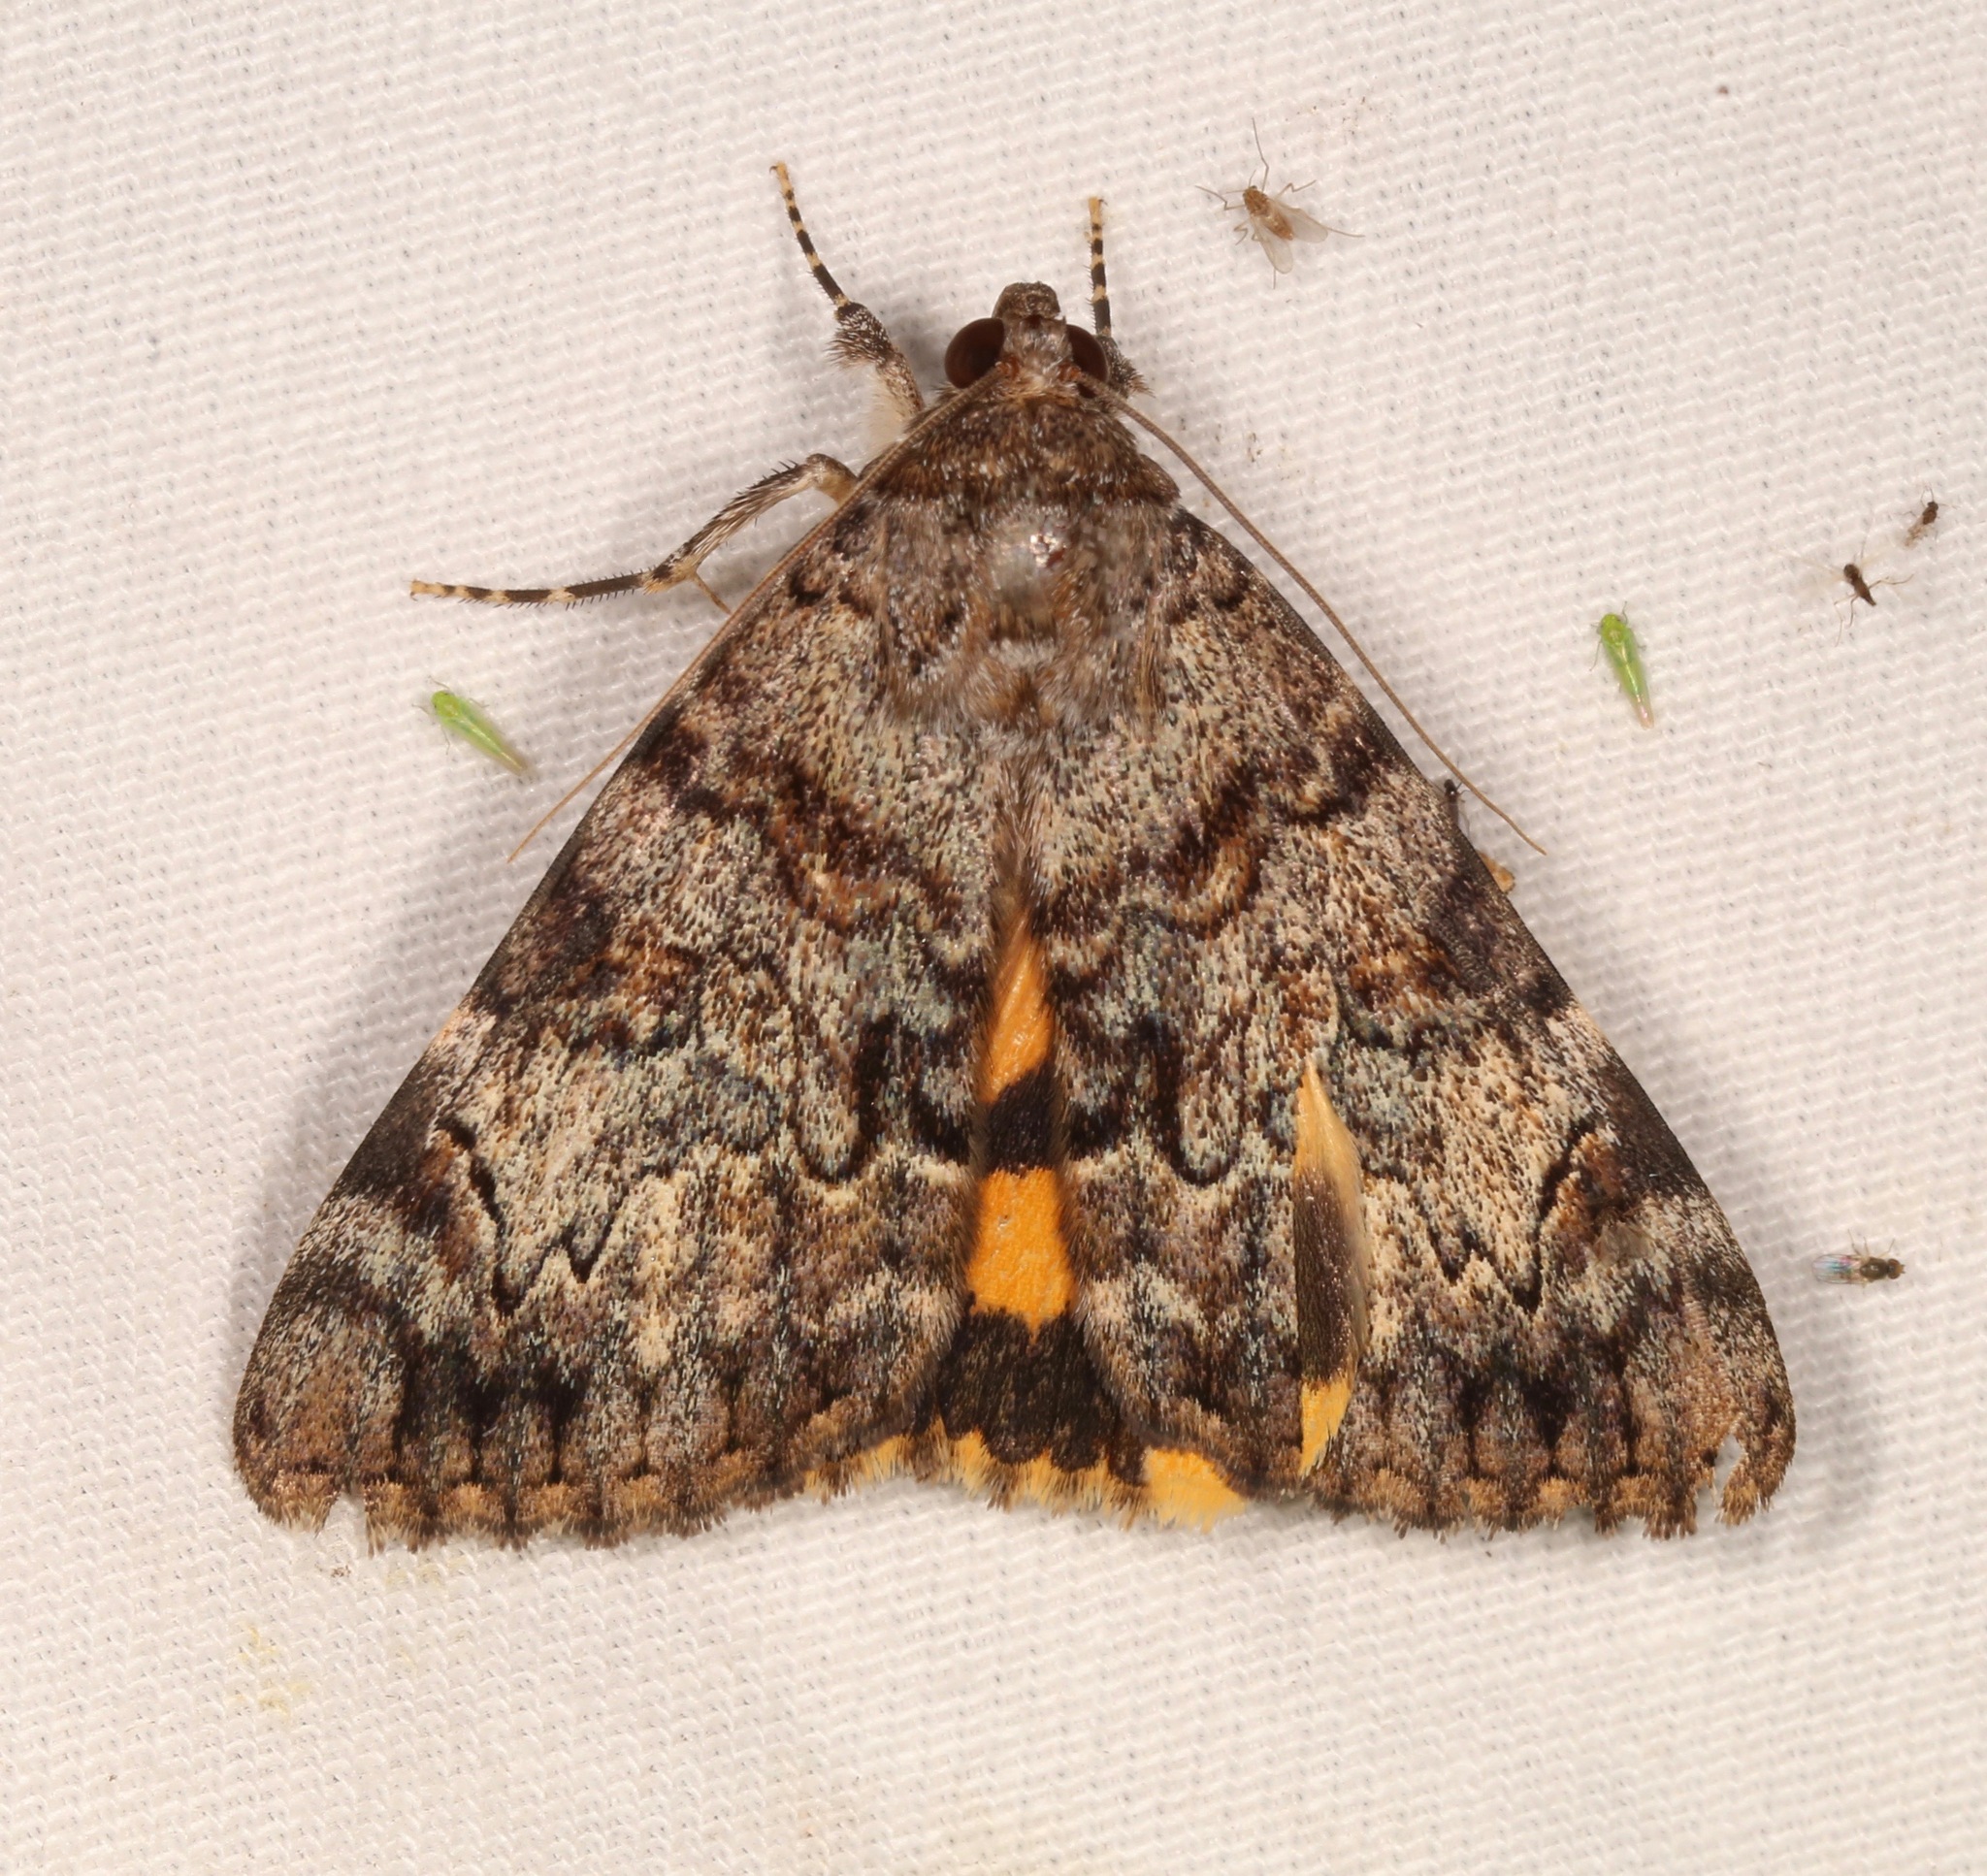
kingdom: Animalia
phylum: Arthropoda
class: Insecta
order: Lepidoptera
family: Erebidae
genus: Catocala
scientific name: Catocala desdemona
